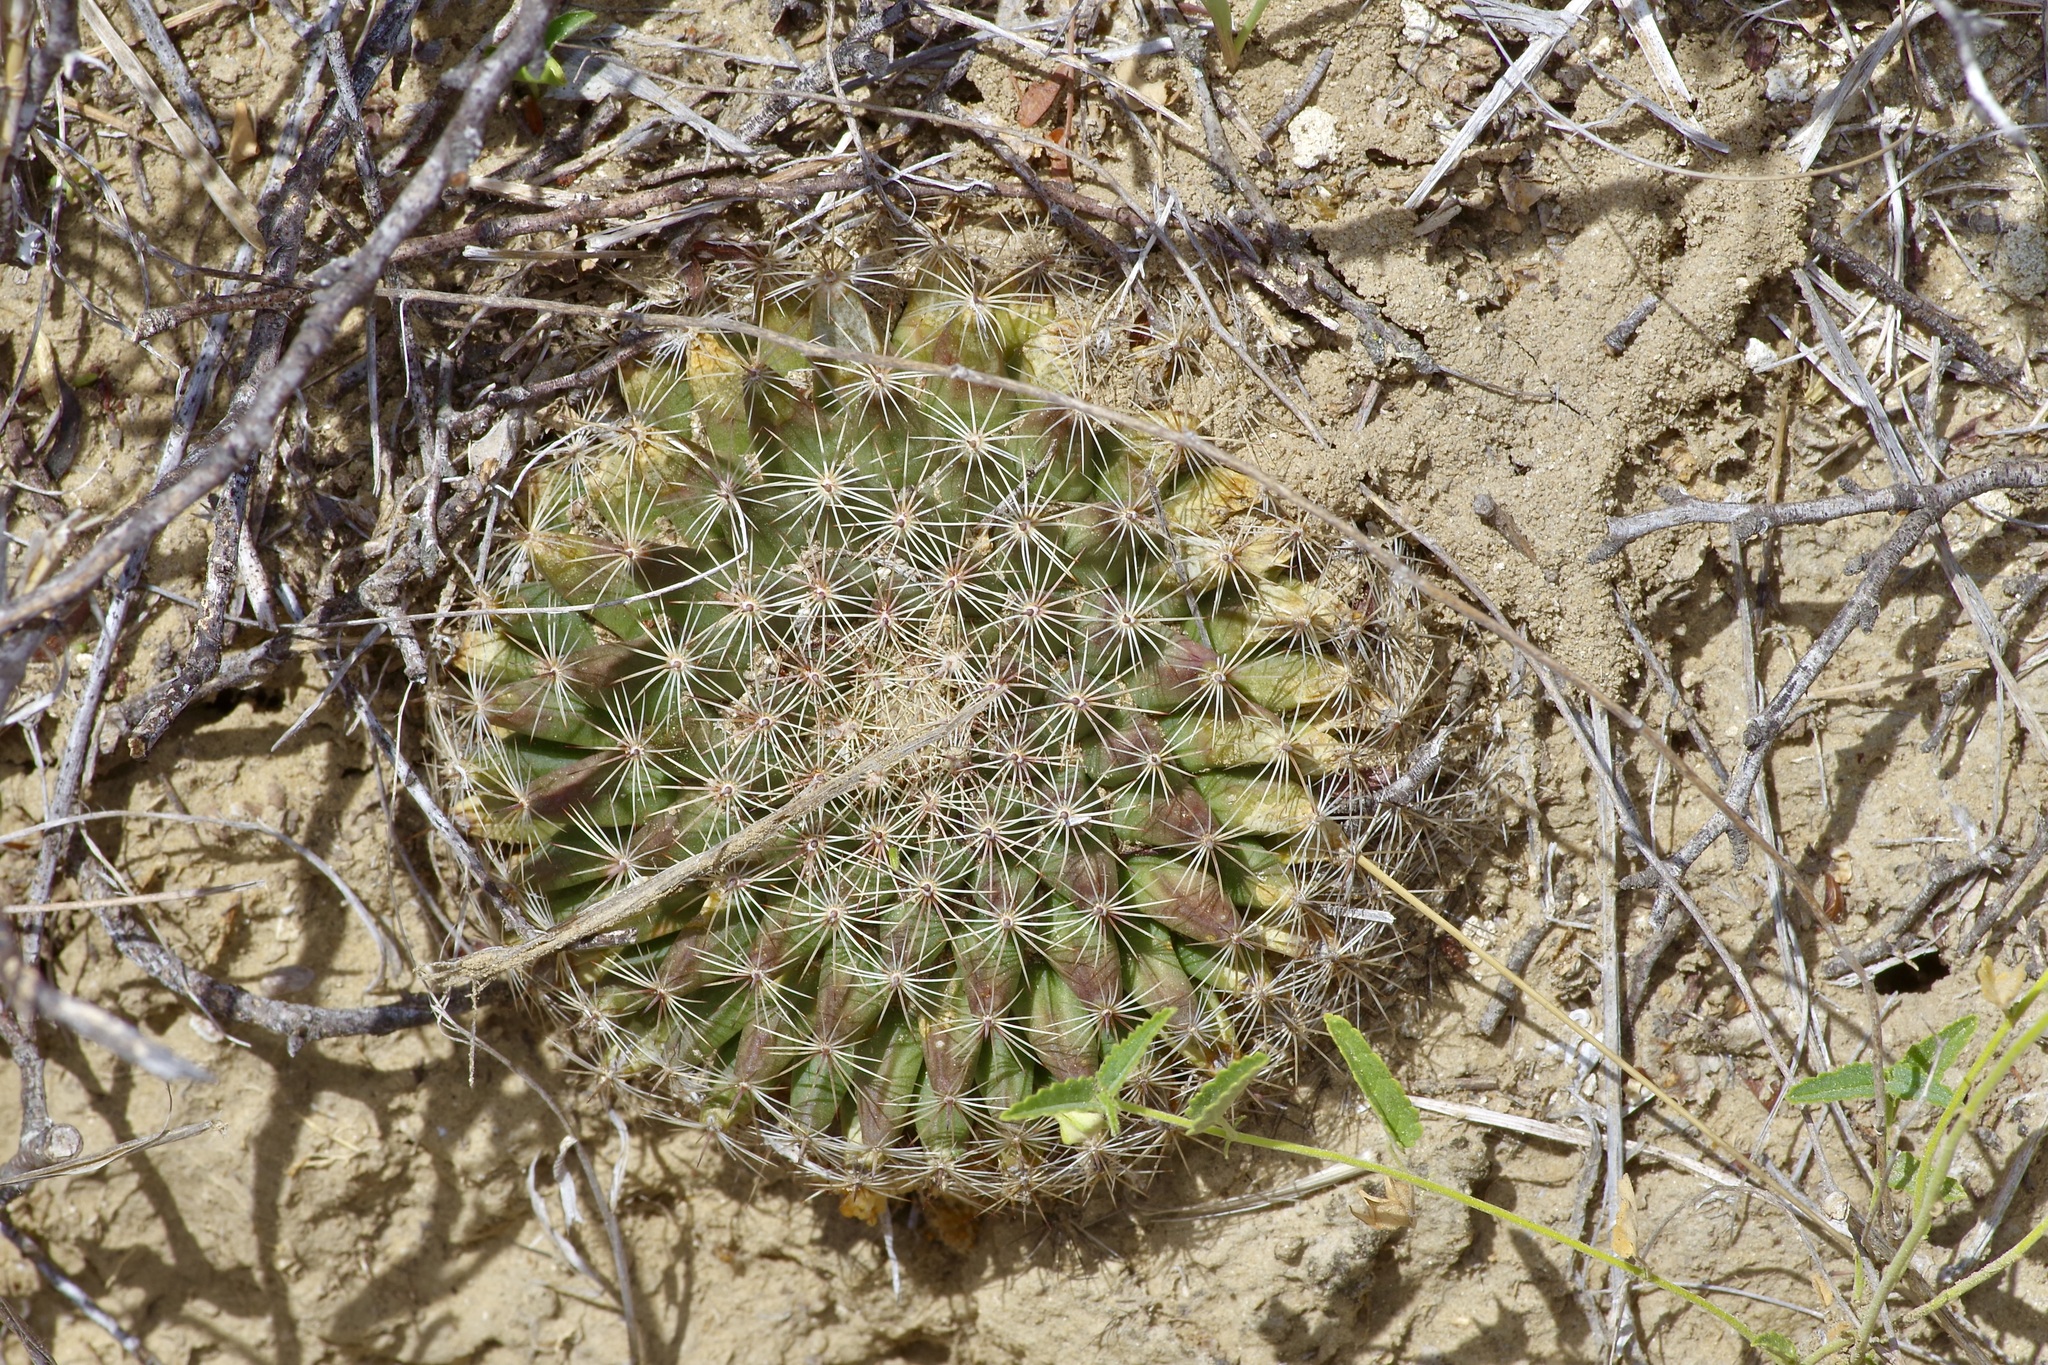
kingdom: Plantae
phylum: Tracheophyta
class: Magnoliopsida
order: Caryophyllales
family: Cactaceae
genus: Mammillaria
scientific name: Mammillaria heyderi
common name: Little nipple cactus
